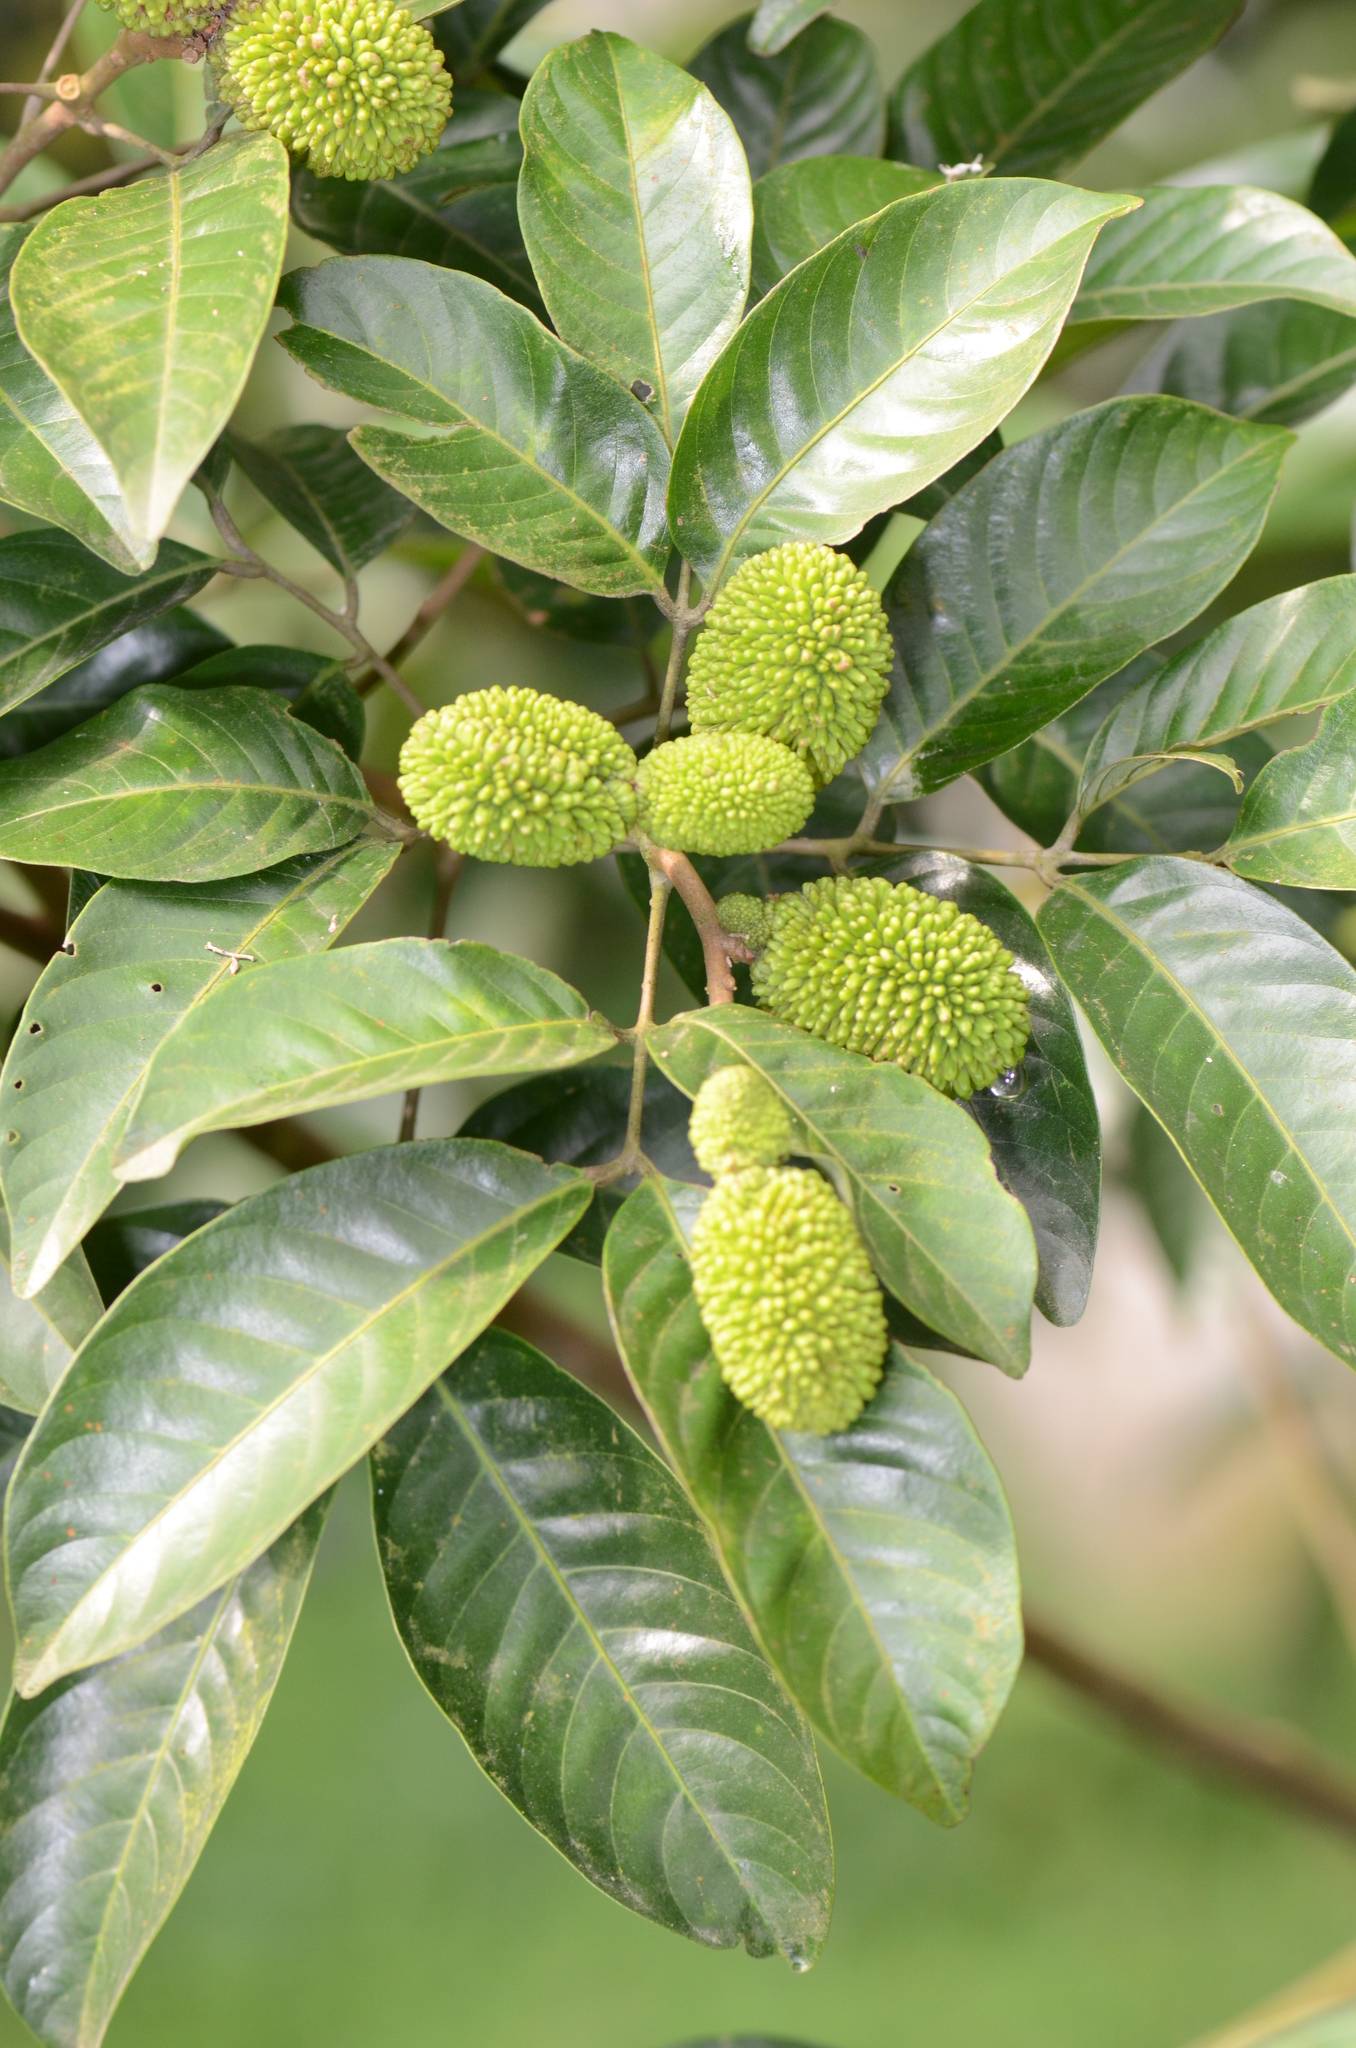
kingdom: Plantae
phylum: Tracheophyta
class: Magnoliopsida
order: Sapindales
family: Sapindaceae
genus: Nephelium
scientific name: Nephelium ramboutan-ake
